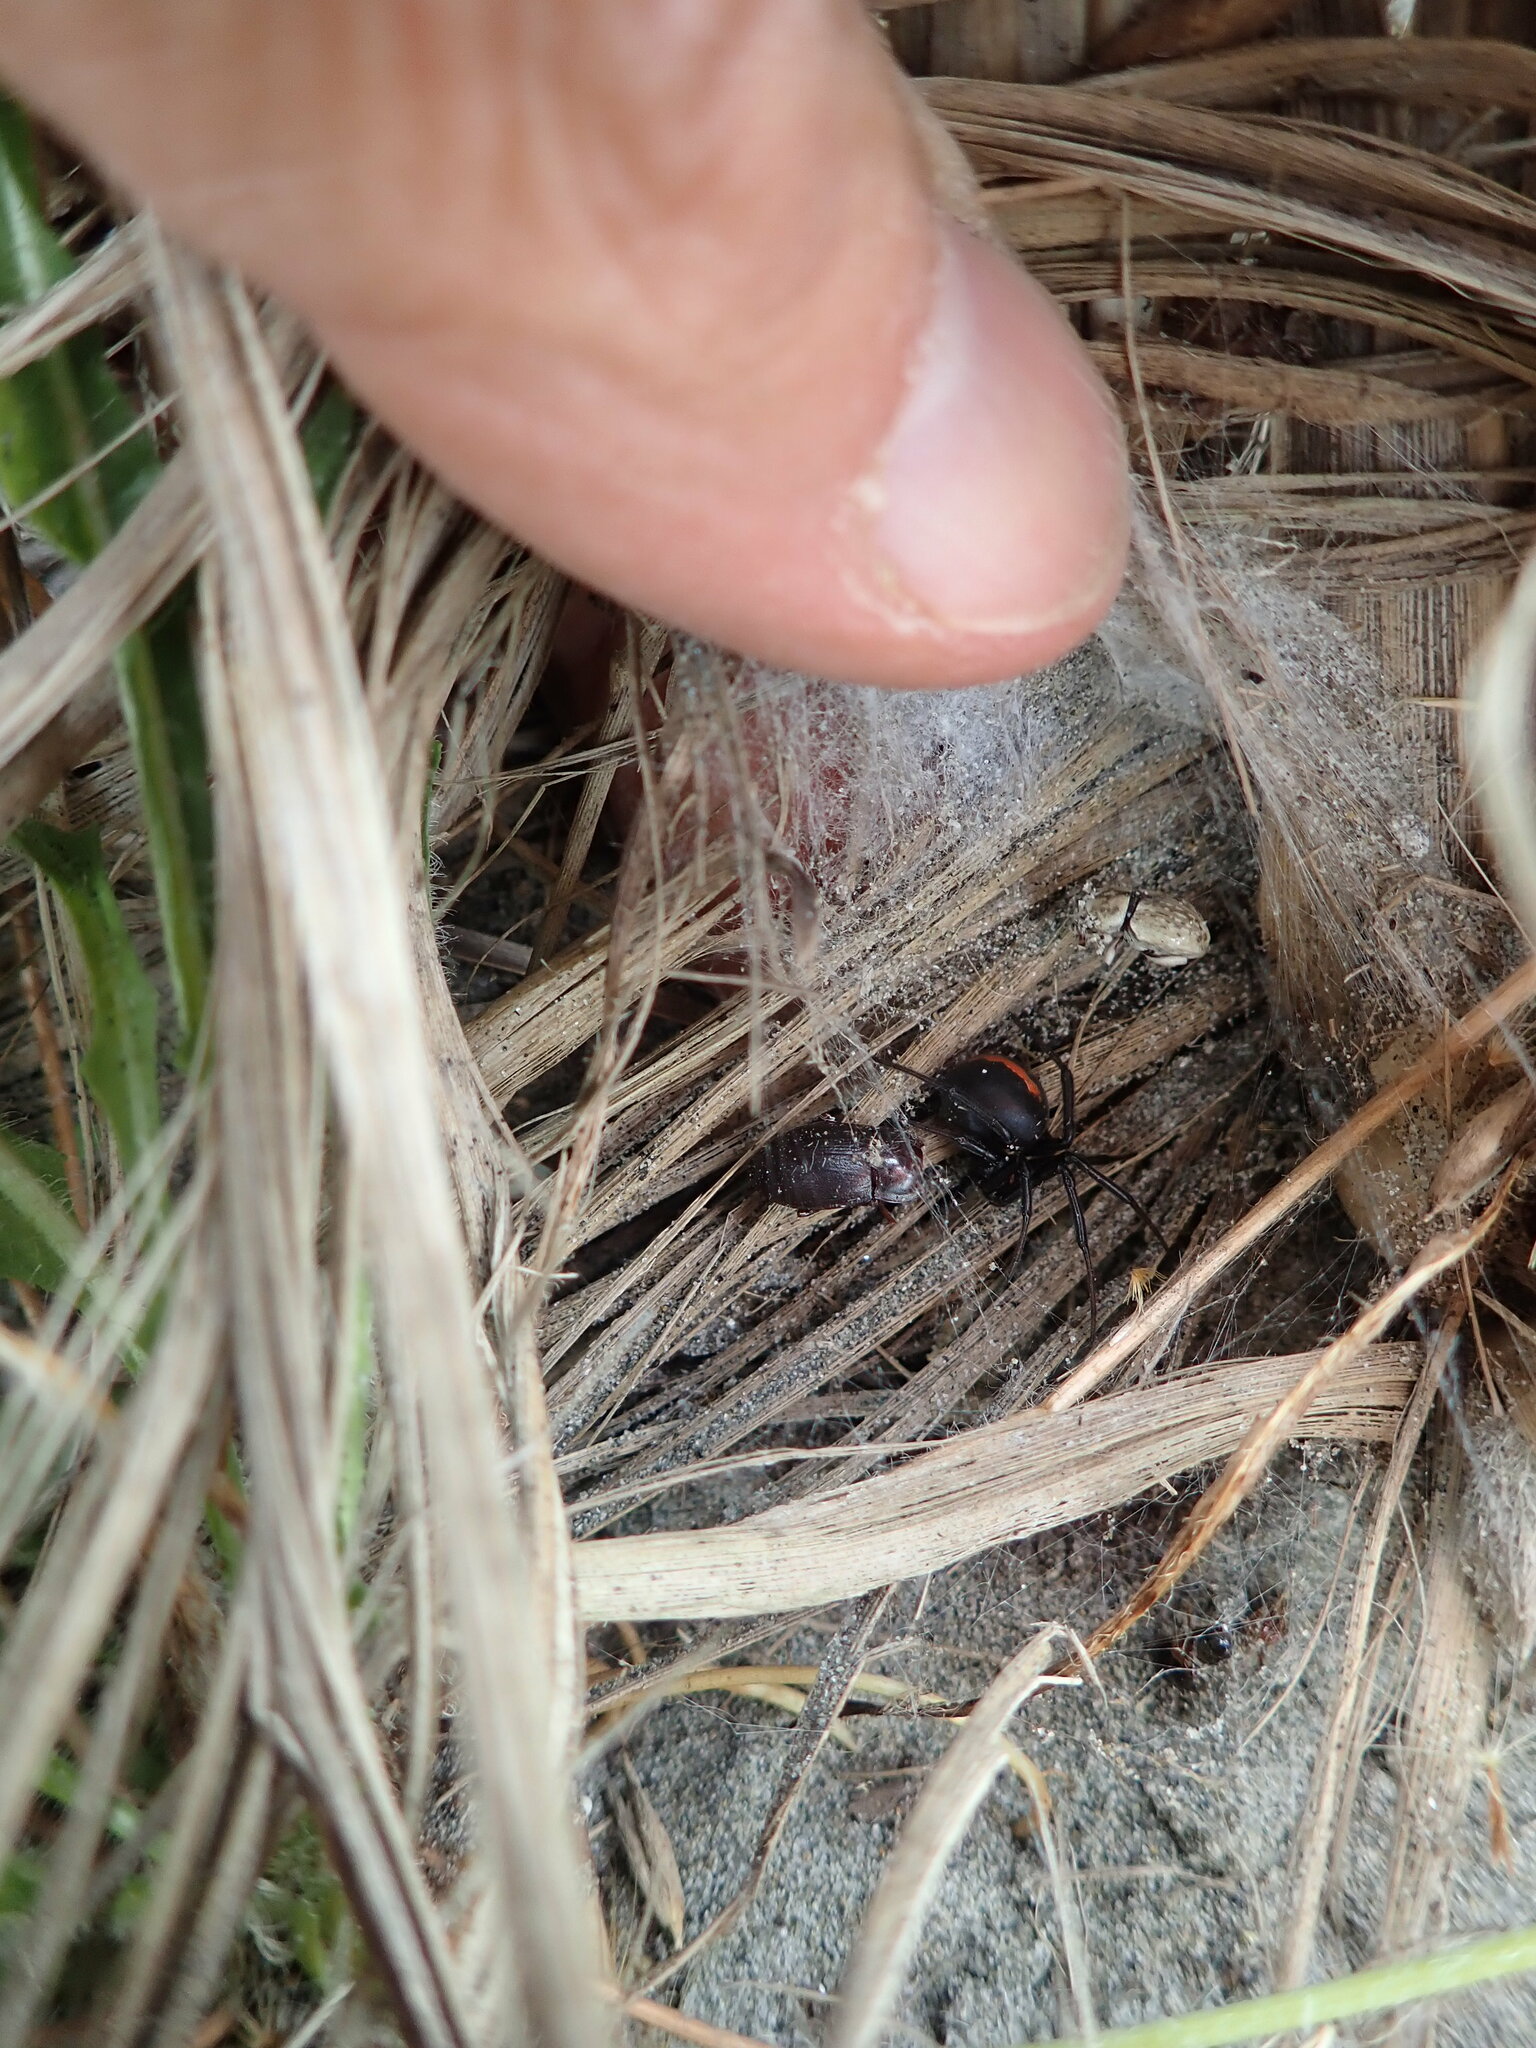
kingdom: Animalia
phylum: Arthropoda
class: Arachnida
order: Araneae
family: Theridiidae
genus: Latrodectus
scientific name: Latrodectus katipo
